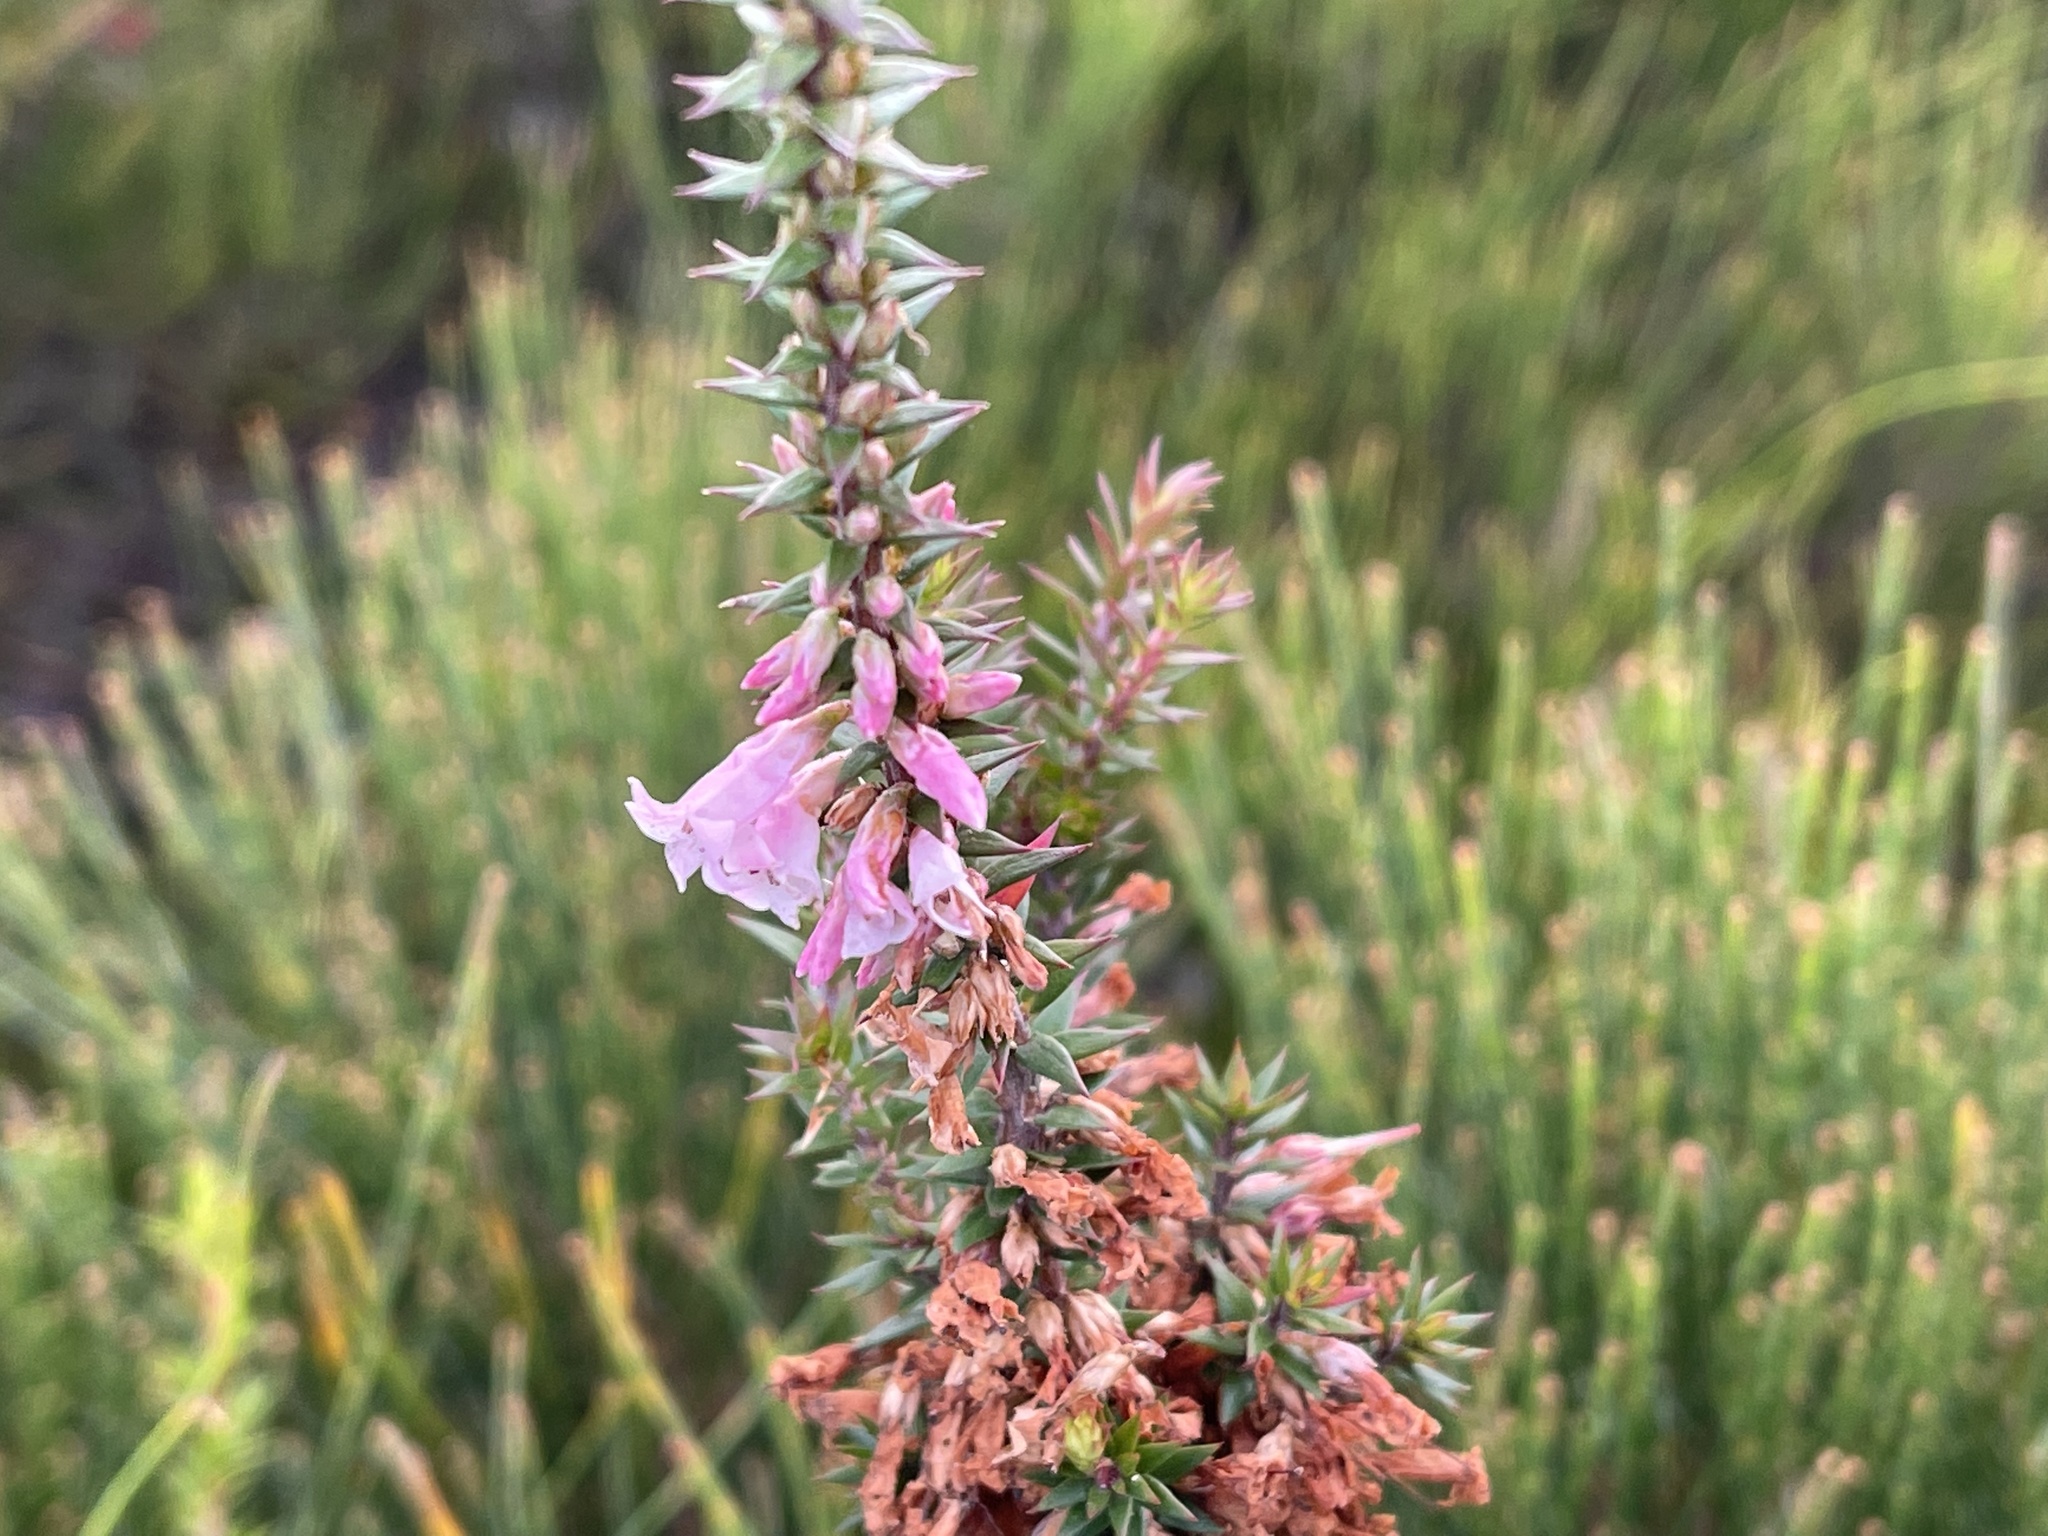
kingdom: Plantae
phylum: Tracheophyta
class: Magnoliopsida
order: Ericales
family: Ericaceae
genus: Epacris
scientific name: Epacris impressa
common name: Common-heath
